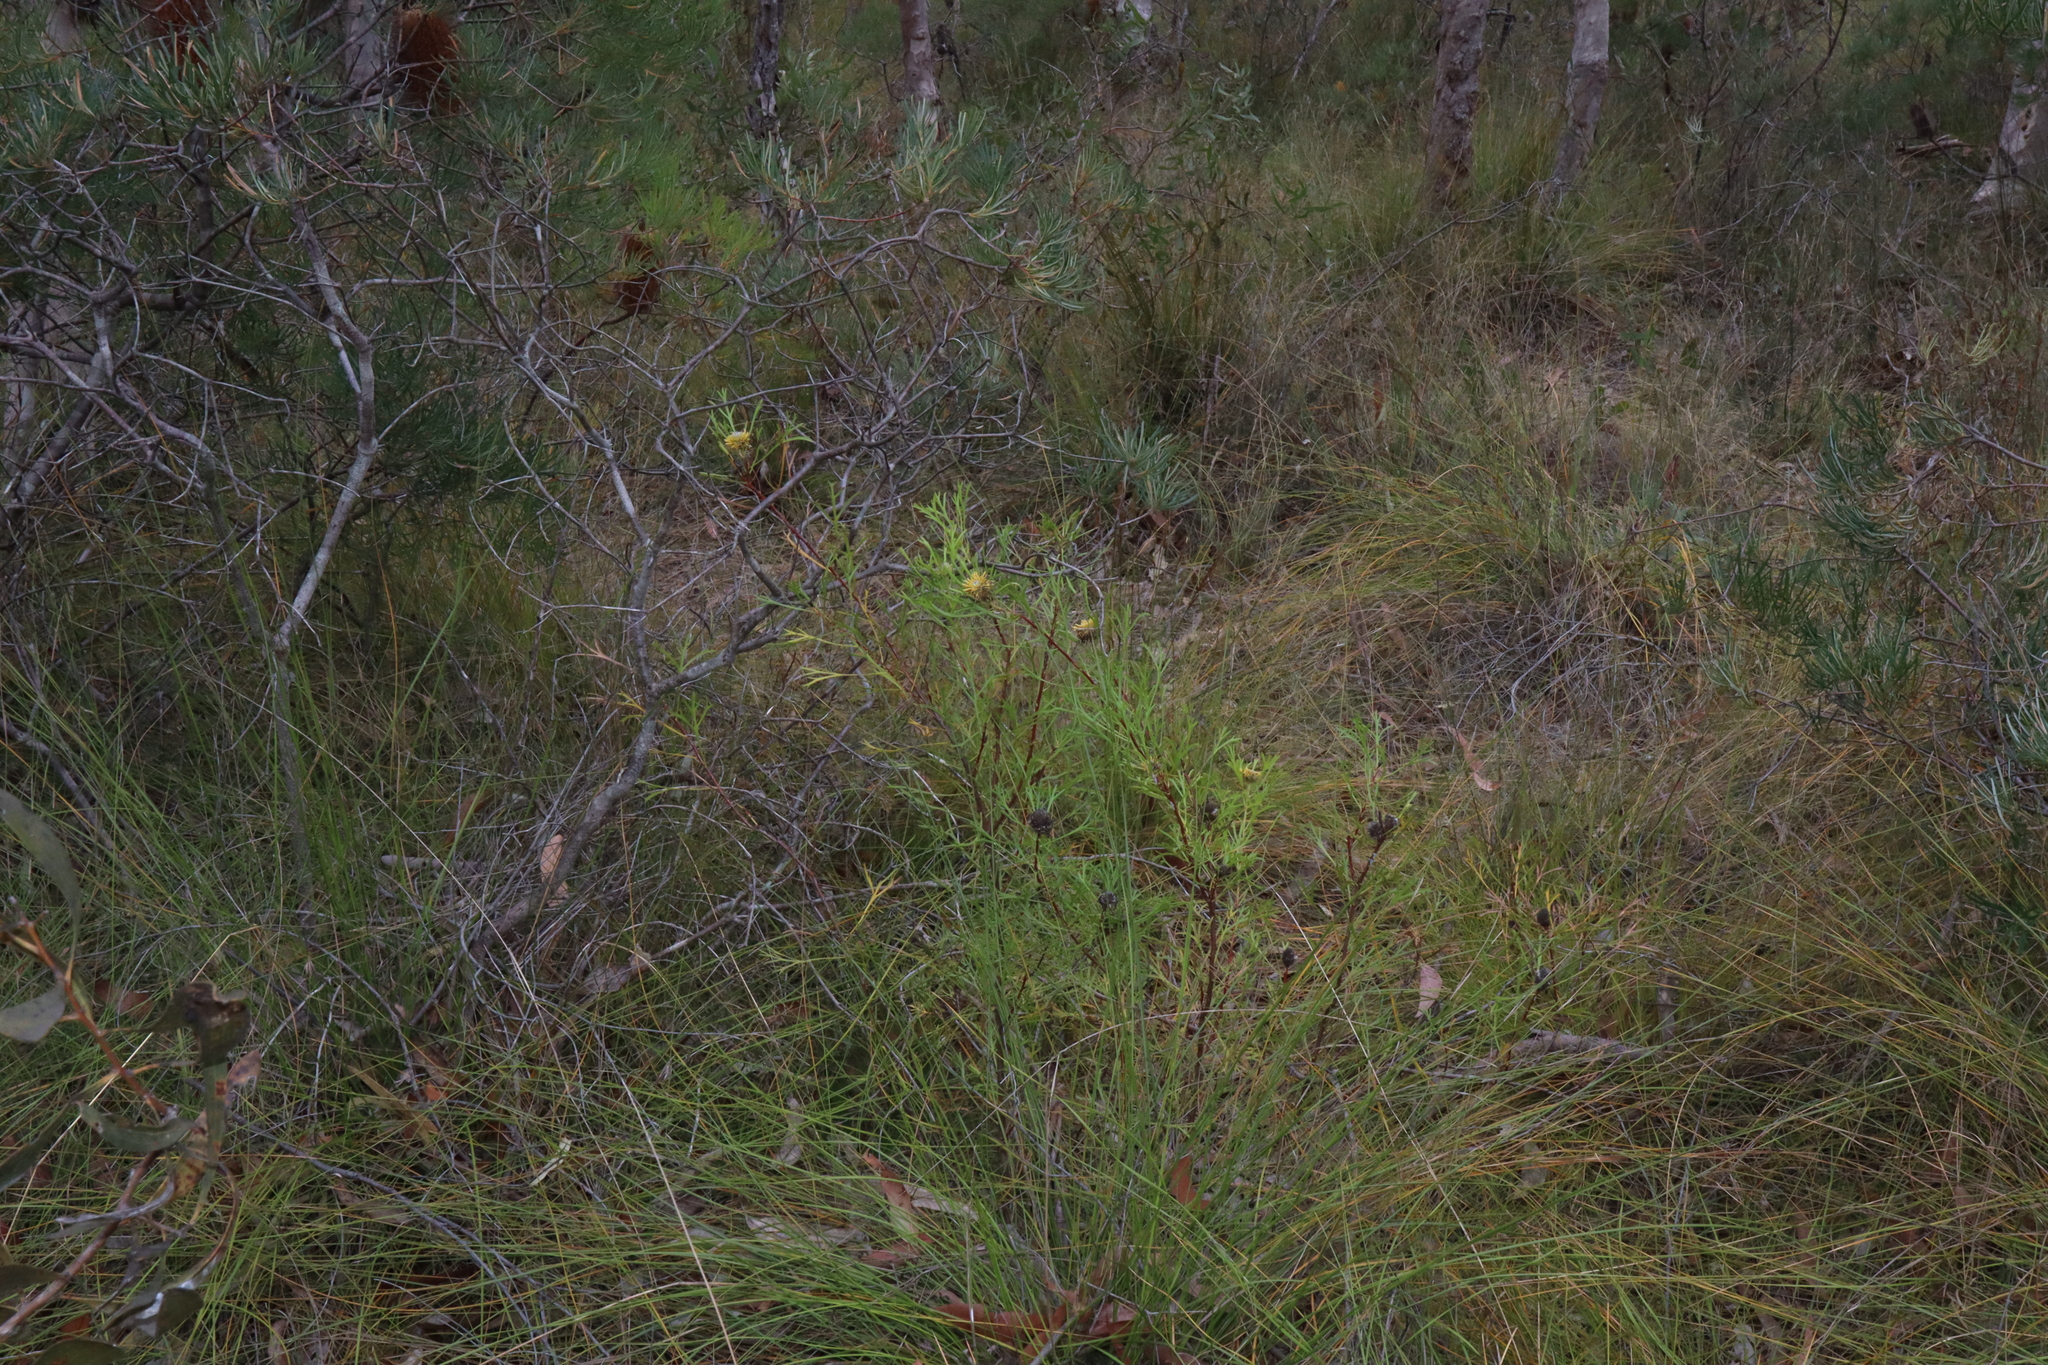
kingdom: Plantae
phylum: Tracheophyta
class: Magnoliopsida
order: Proteales
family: Proteaceae
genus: Isopogon
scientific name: Isopogon anemonifolius
